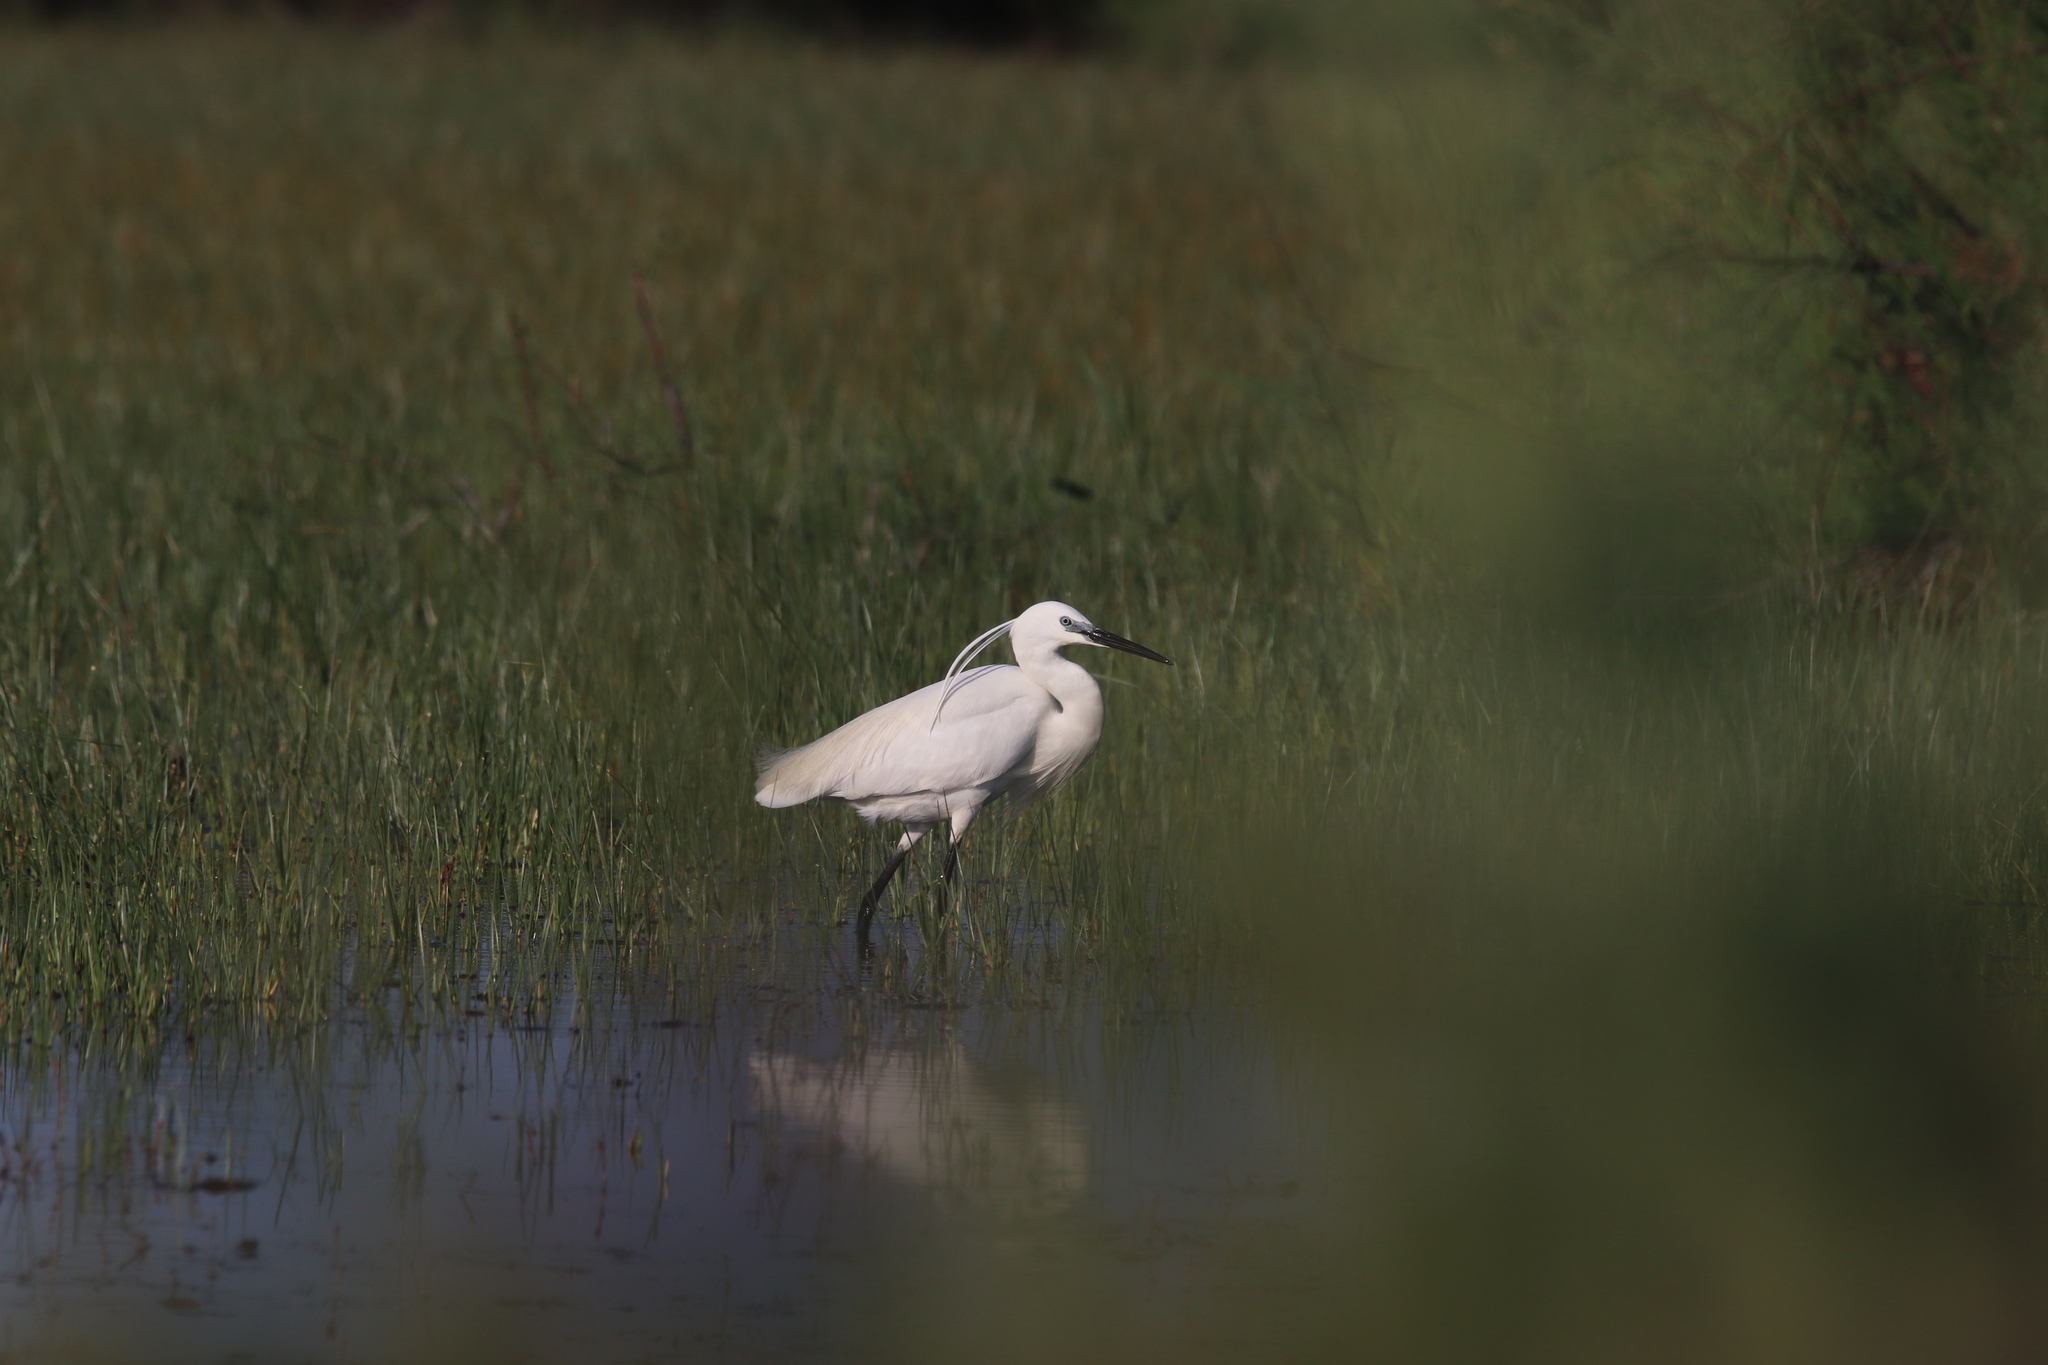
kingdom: Animalia
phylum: Chordata
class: Aves
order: Pelecaniformes
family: Ardeidae
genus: Egretta
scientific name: Egretta garzetta
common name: Little egret
